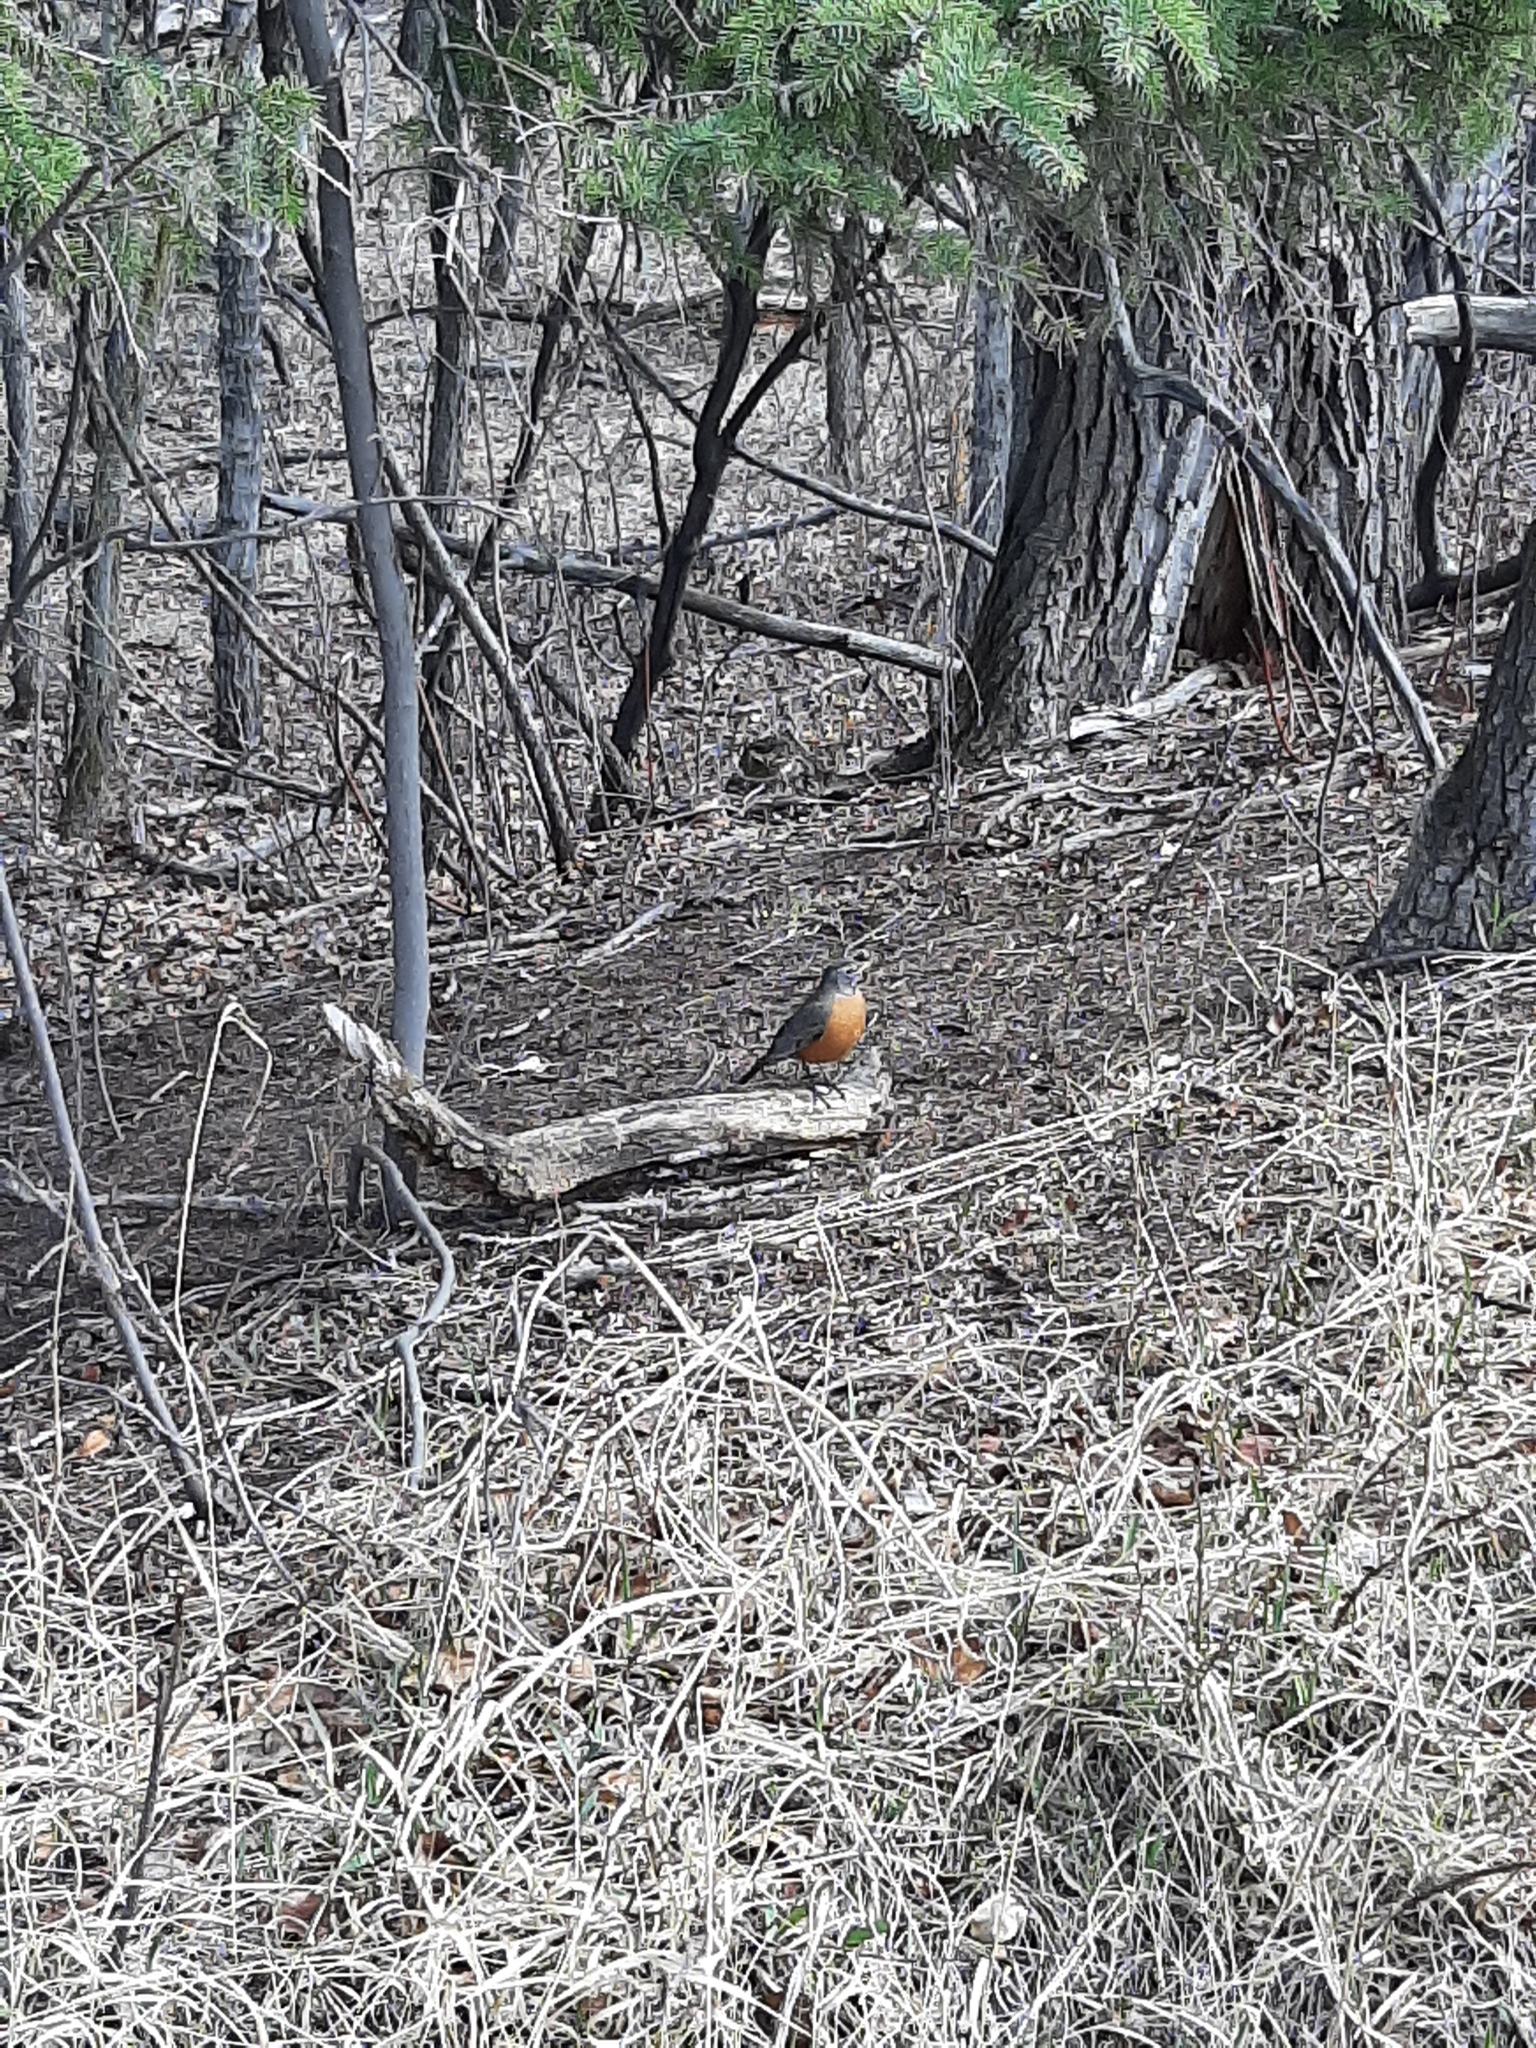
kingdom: Animalia
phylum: Chordata
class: Aves
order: Passeriformes
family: Turdidae
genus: Turdus
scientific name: Turdus migratorius
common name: American robin
